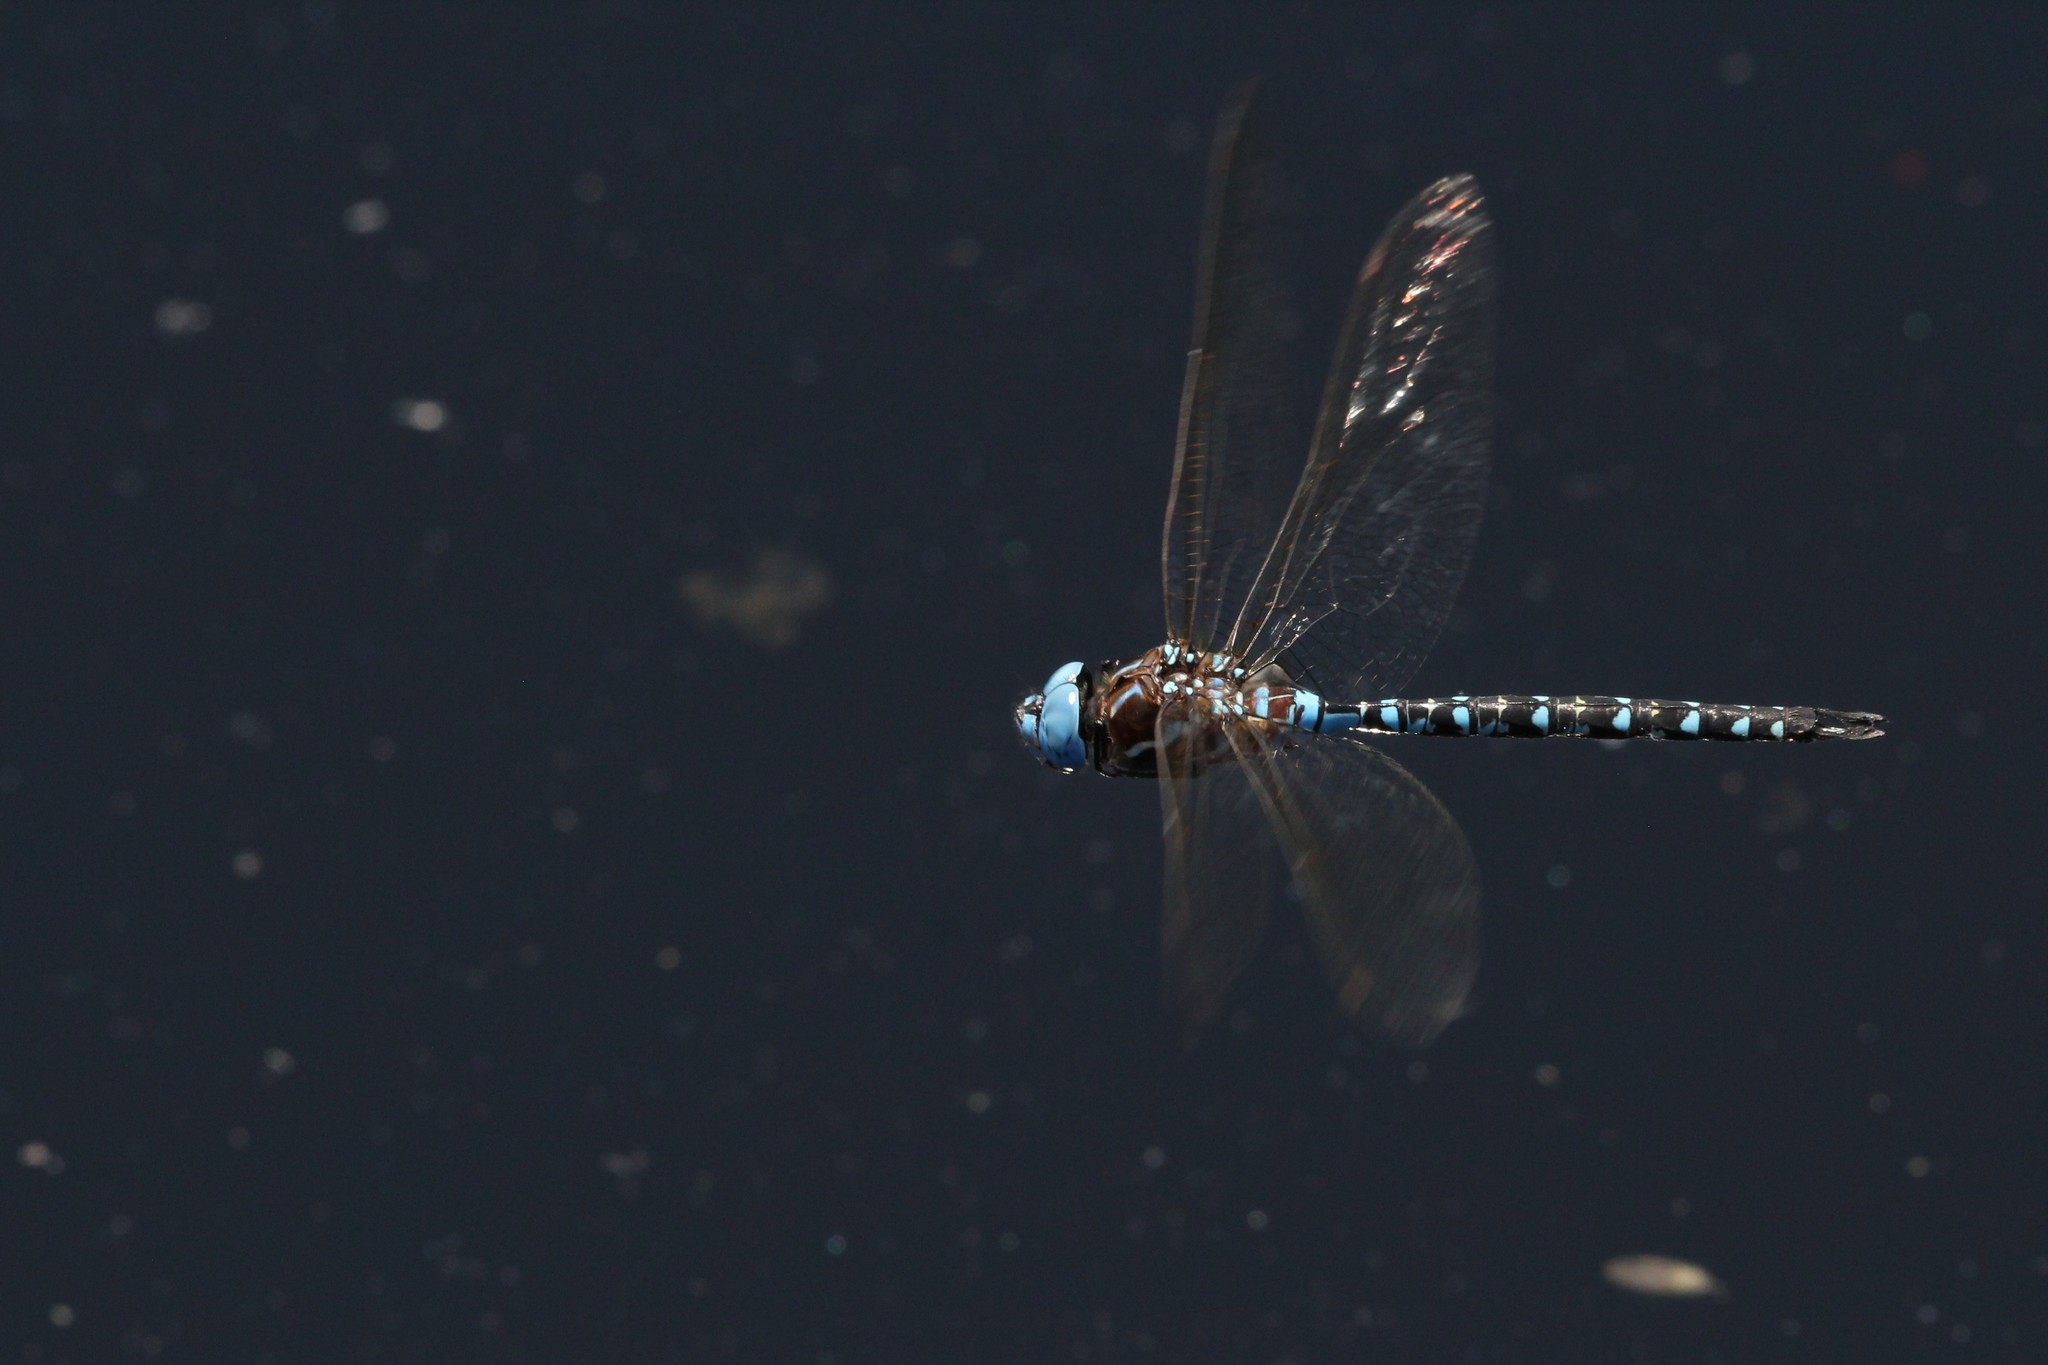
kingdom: Animalia
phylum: Arthropoda
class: Insecta
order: Odonata
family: Aeshnidae
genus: Rhionaeschna
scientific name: Rhionaeschna mutata
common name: Spatterdock darner
